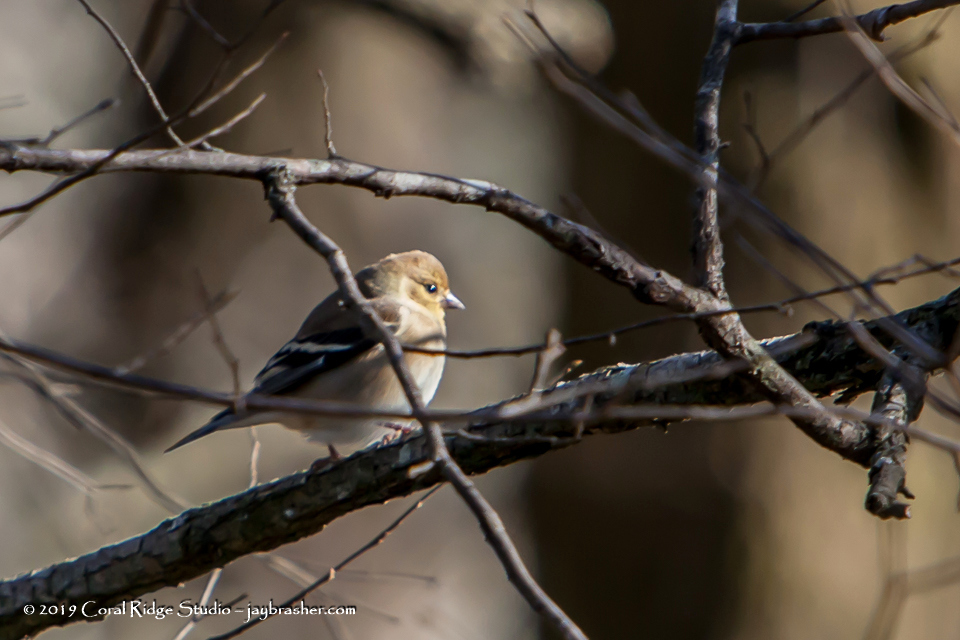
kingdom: Animalia
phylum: Chordata
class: Aves
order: Passeriformes
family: Fringillidae
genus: Spinus
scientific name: Spinus tristis
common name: American goldfinch
